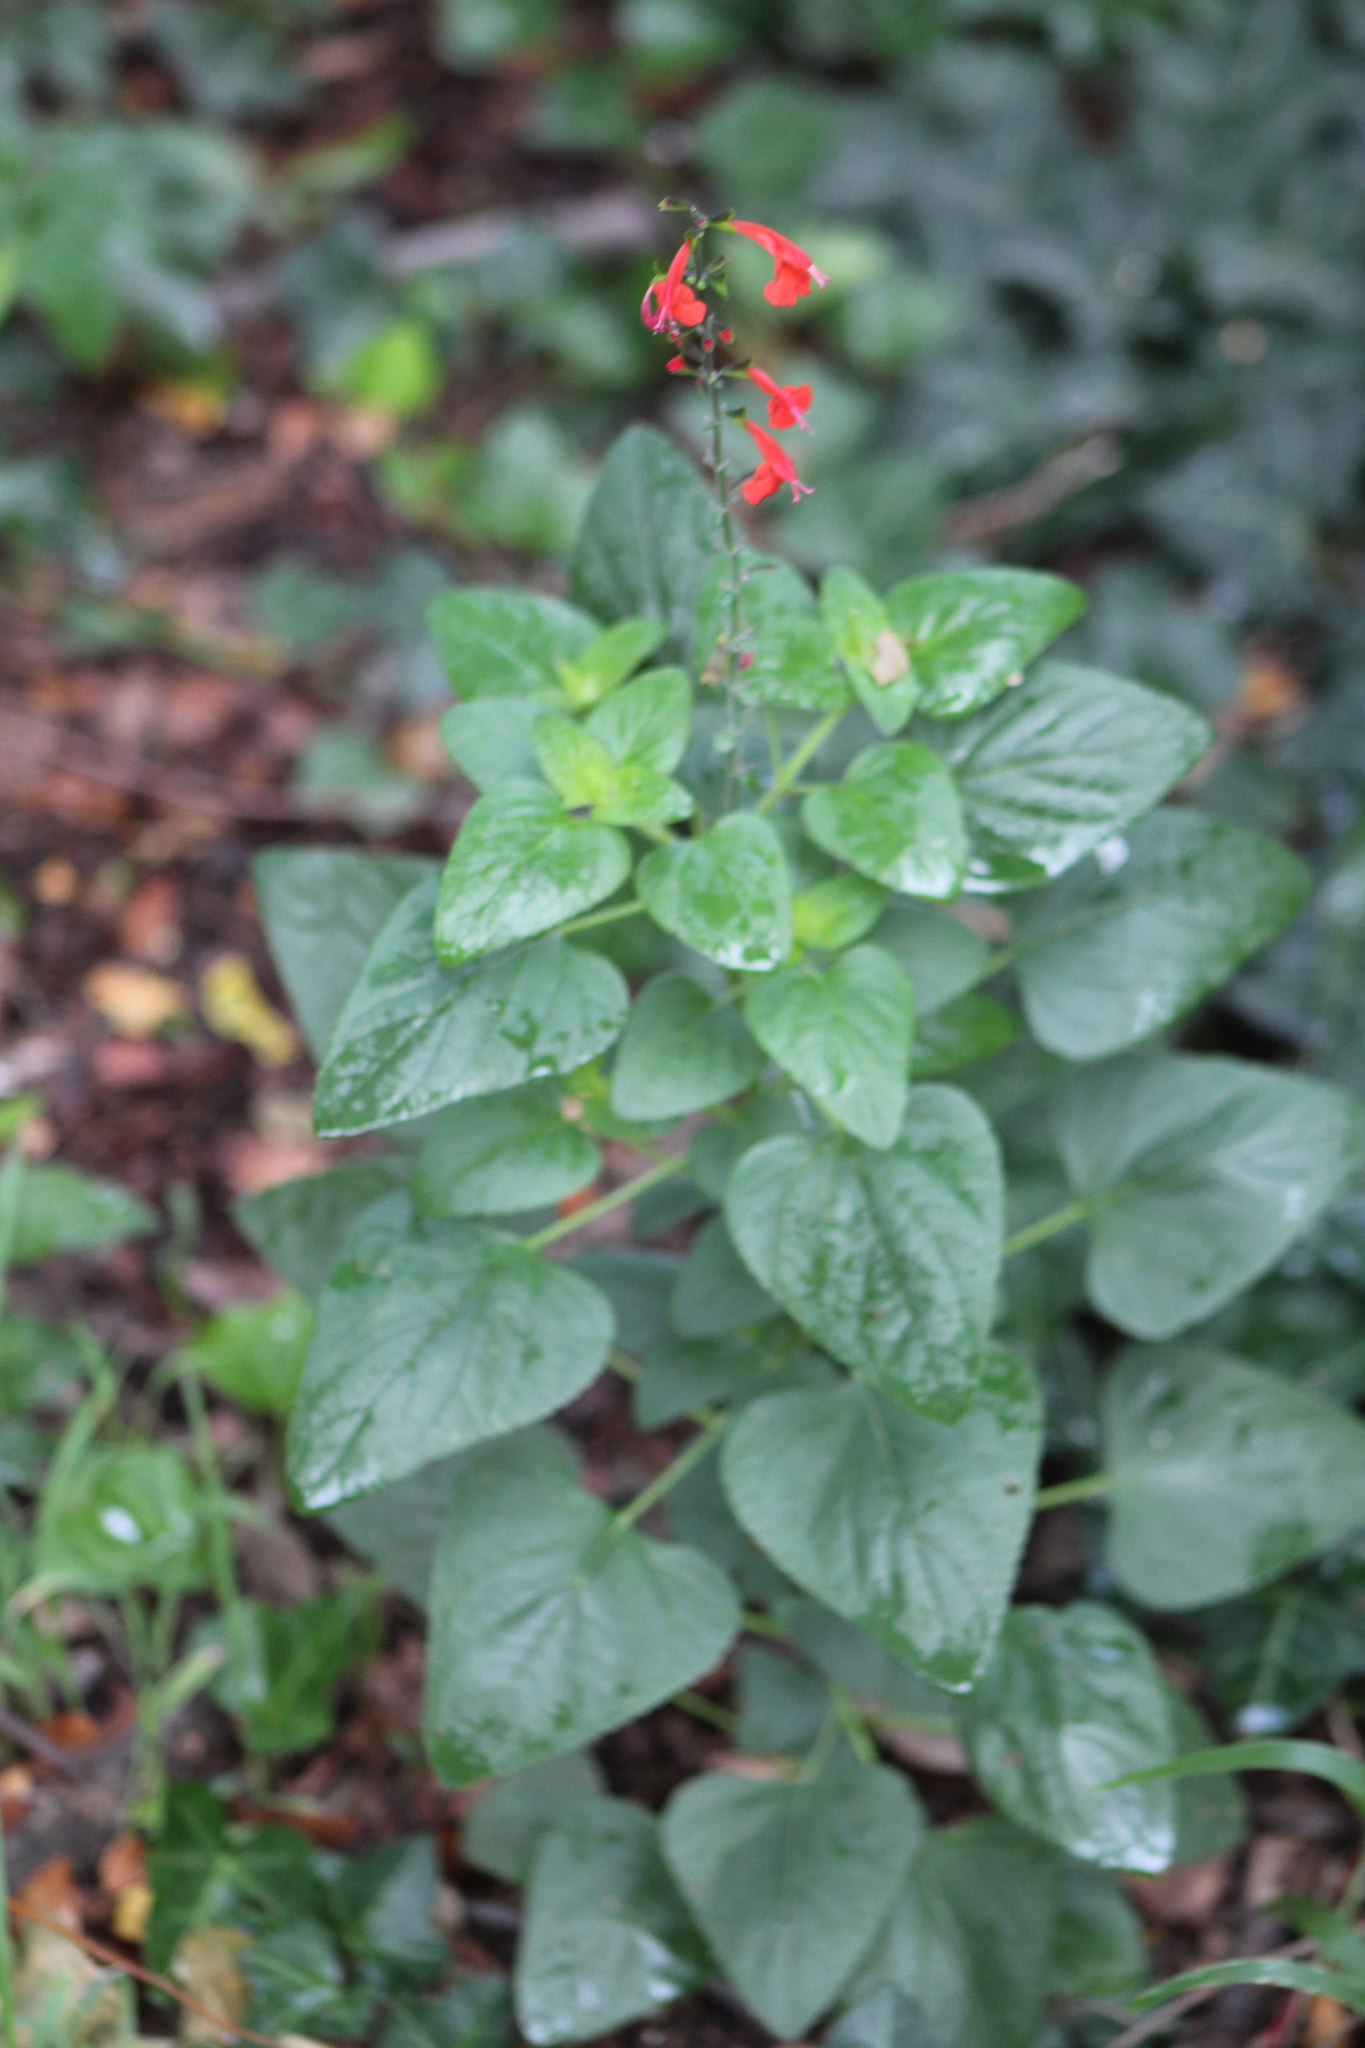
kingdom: Plantae
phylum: Tracheophyta
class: Magnoliopsida
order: Lamiales
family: Lamiaceae
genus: Salvia
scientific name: Salvia coccinea
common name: Blood sage
